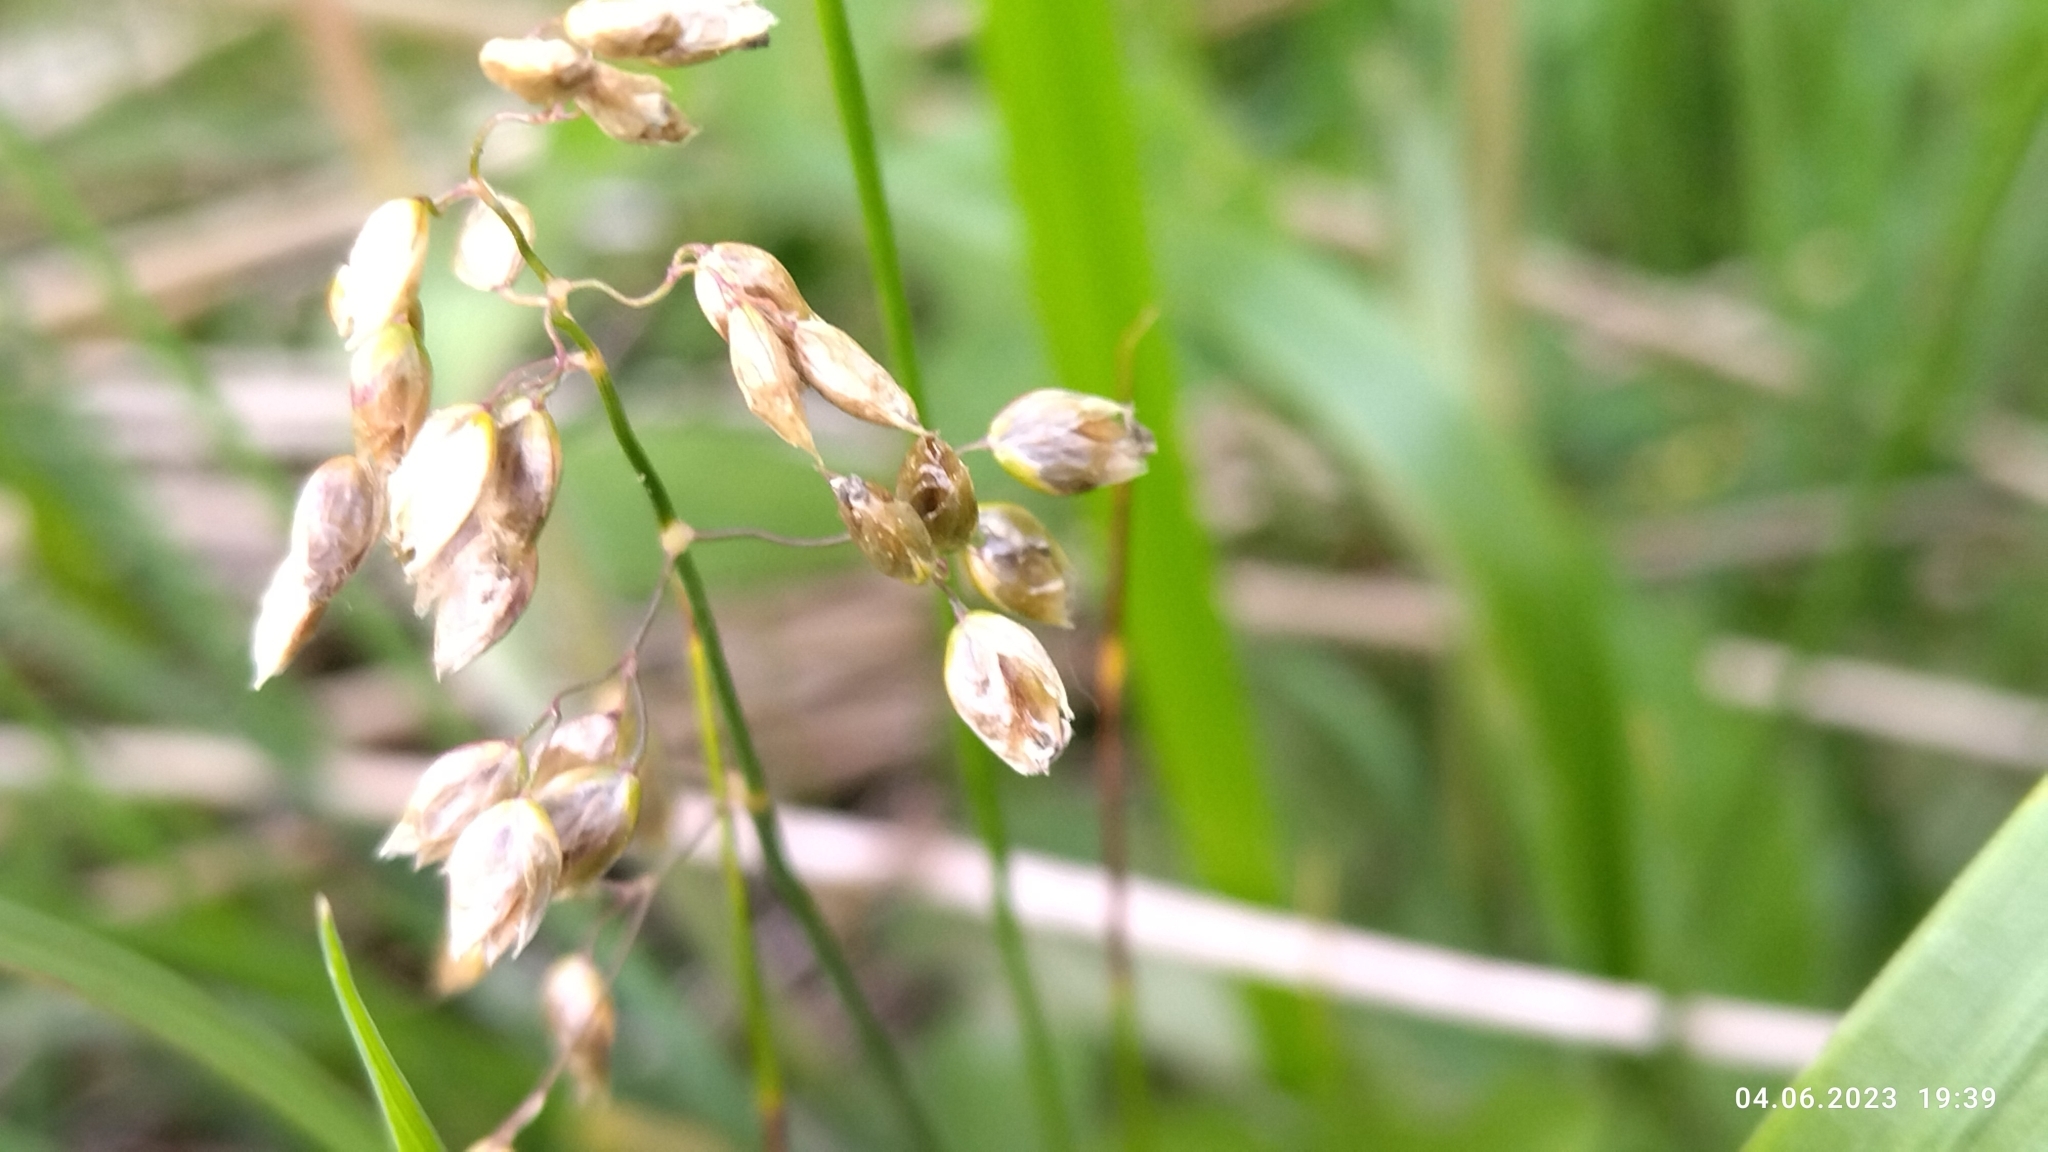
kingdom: Plantae
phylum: Tracheophyta
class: Liliopsida
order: Poales
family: Poaceae
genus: Anthoxanthum
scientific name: Anthoxanthum nitens
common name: Holy grass
